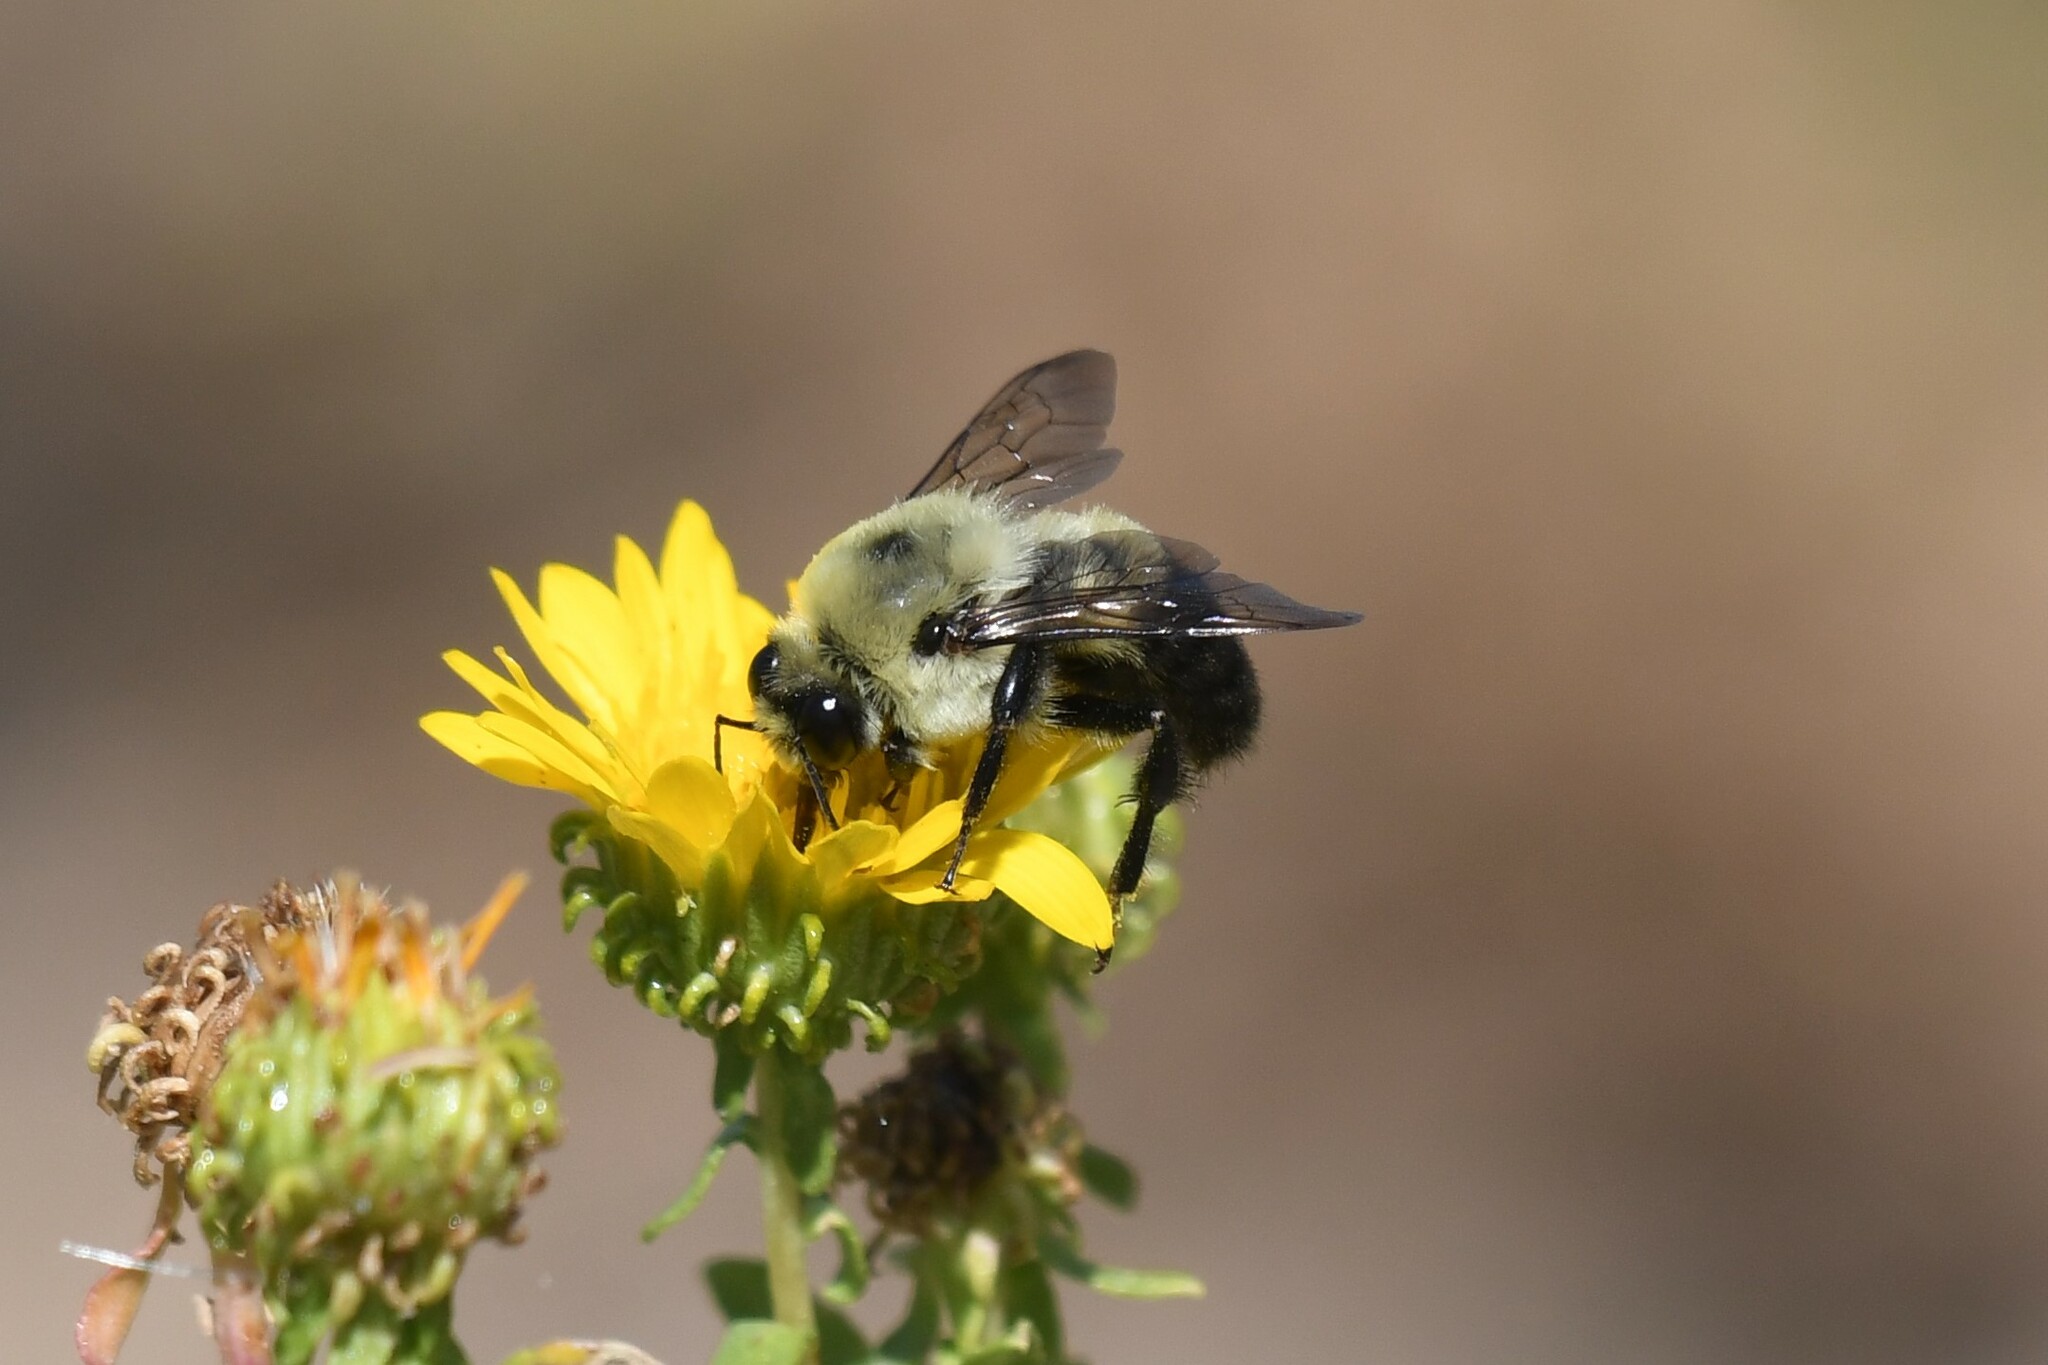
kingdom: Animalia
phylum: Arthropoda
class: Insecta
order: Hymenoptera
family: Apidae
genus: Bombus
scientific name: Bombus griseocollis
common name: Brown-belted bumble bee
